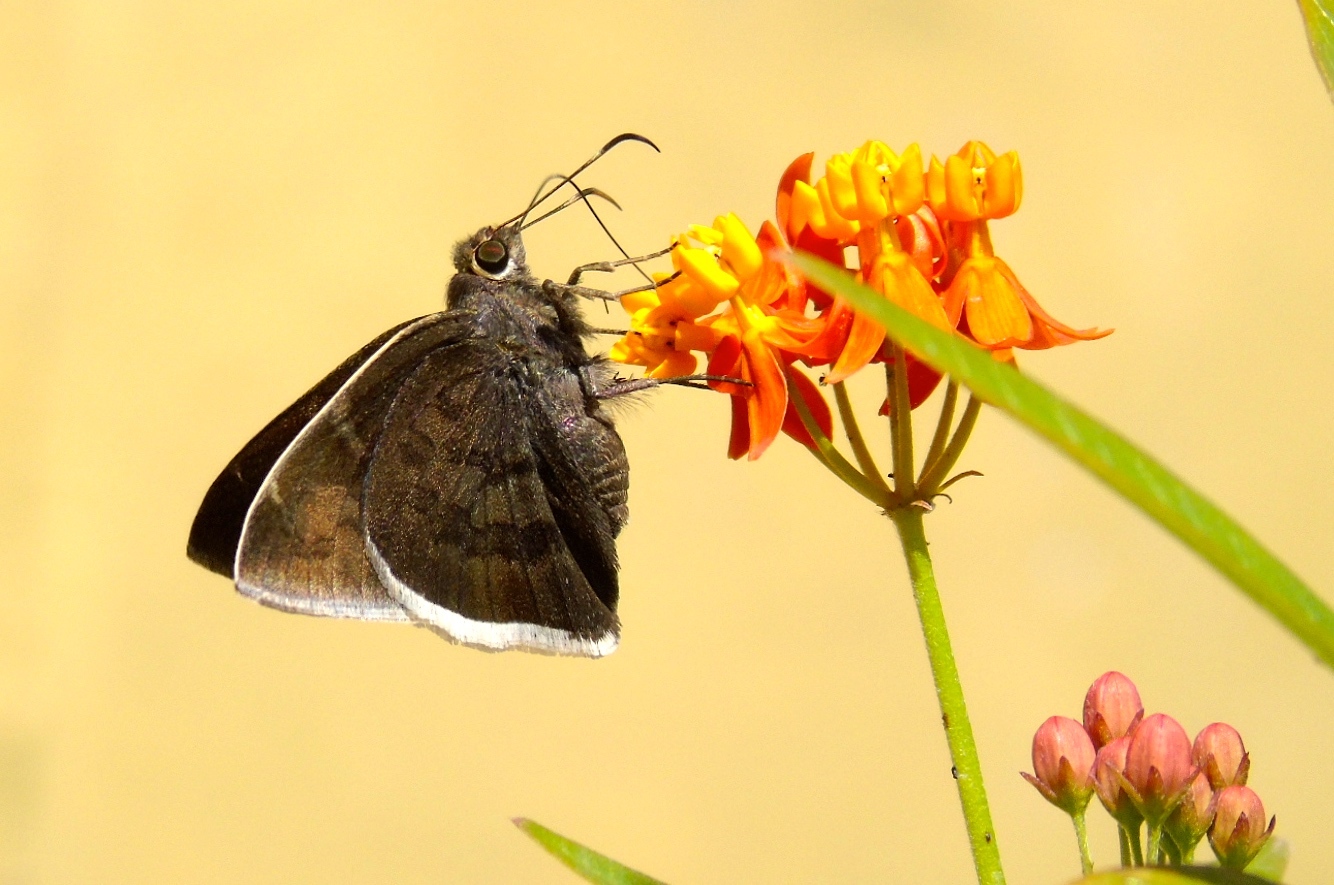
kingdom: Animalia
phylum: Arthropoda
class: Insecta
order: Lepidoptera
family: Hesperiidae
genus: Achalarus
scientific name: Achalarus Murgaria albociliatus
